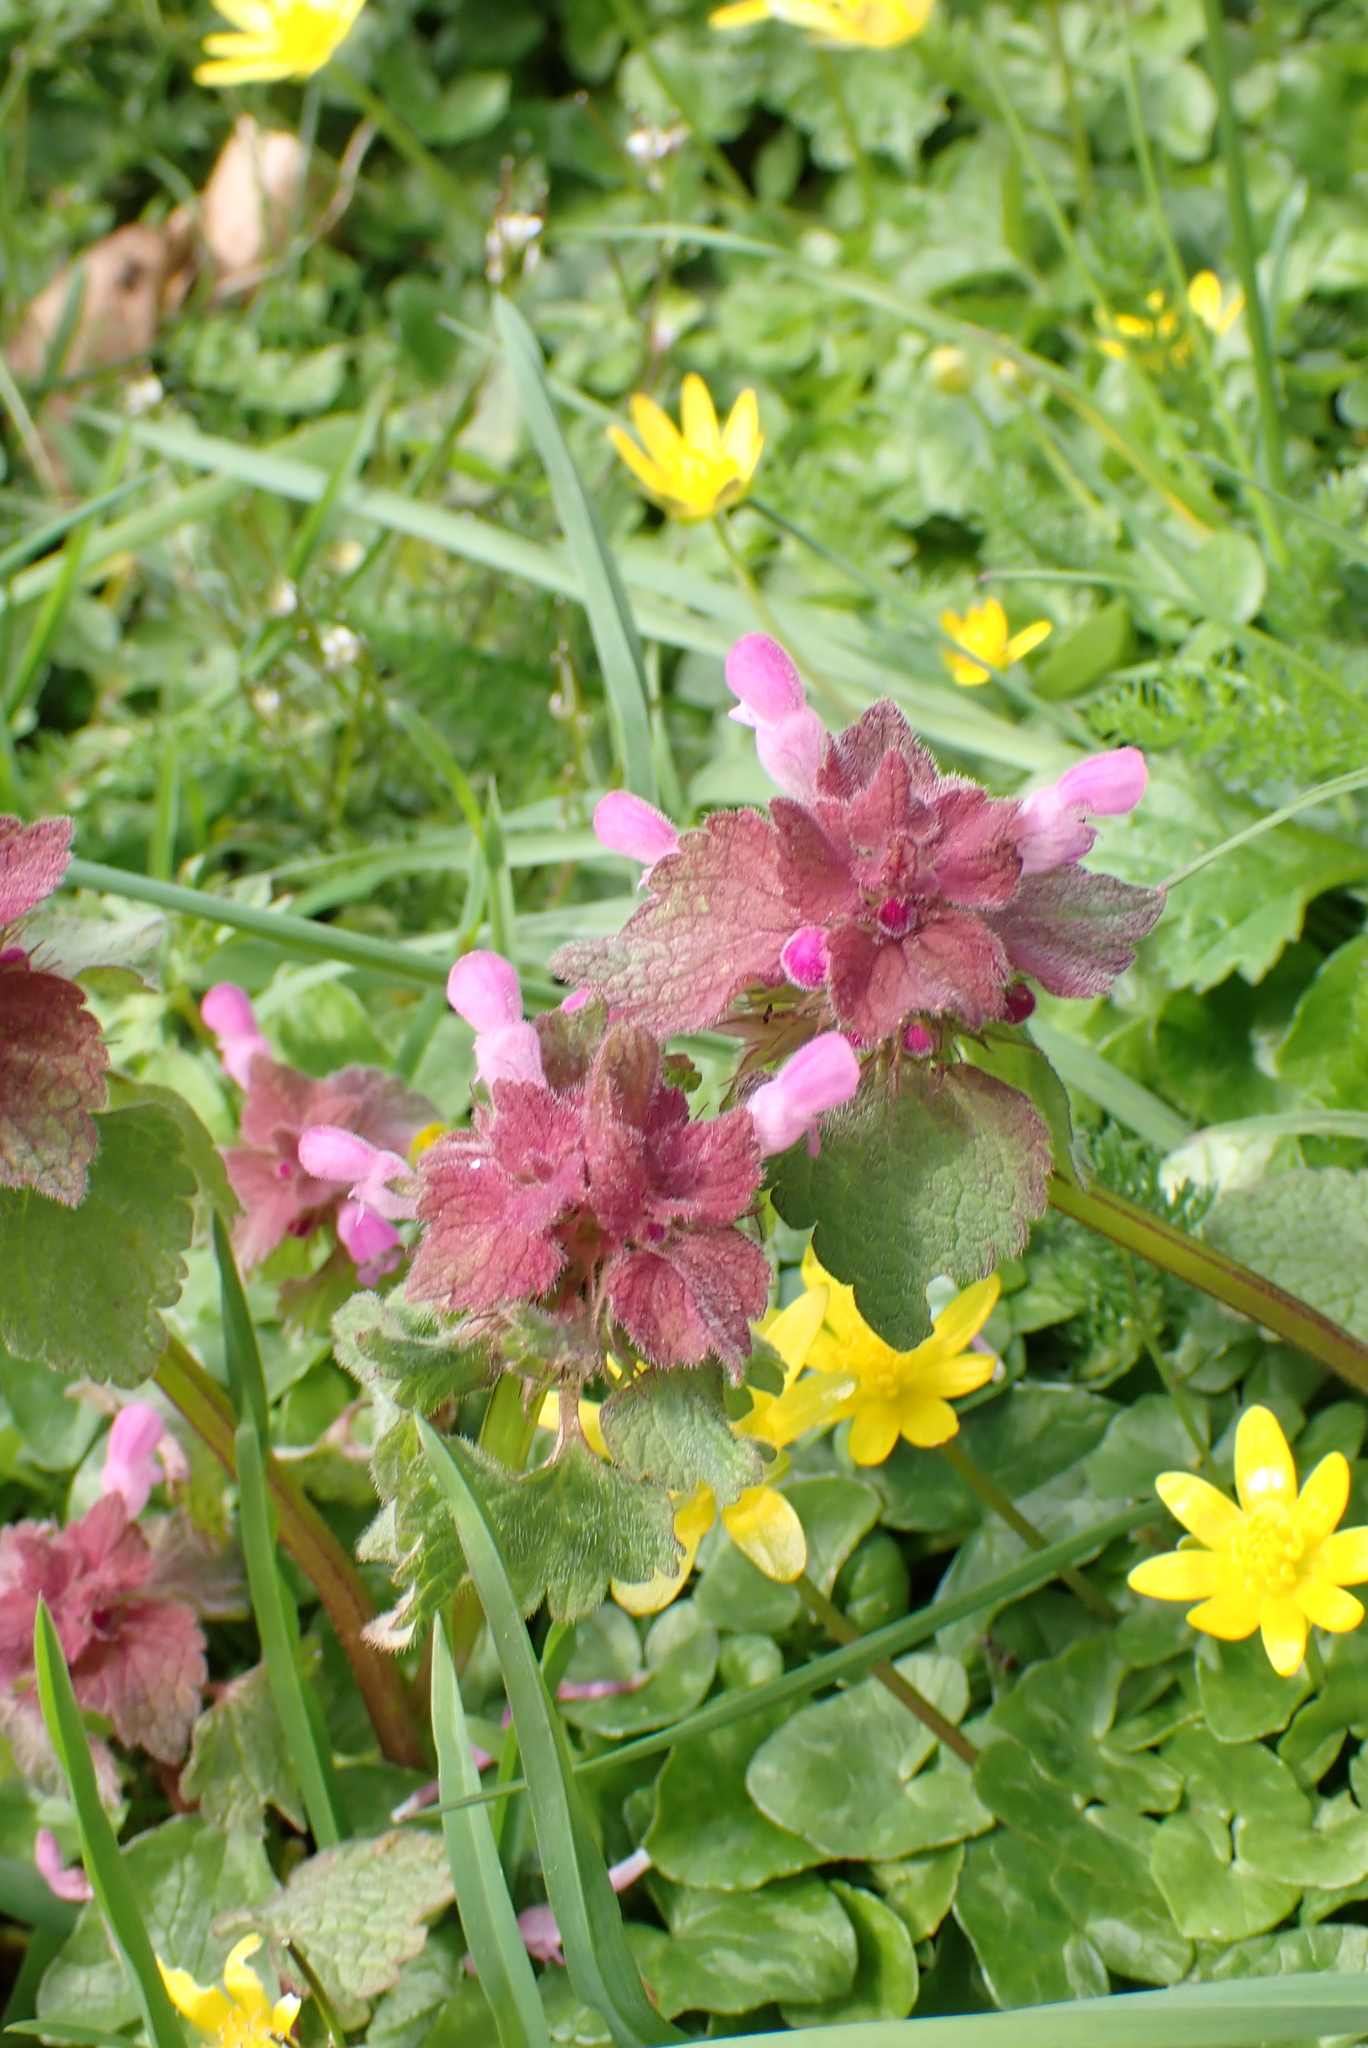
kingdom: Plantae
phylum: Tracheophyta
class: Magnoliopsida
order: Lamiales
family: Lamiaceae
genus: Lamium
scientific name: Lamium purpureum
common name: Red dead-nettle
